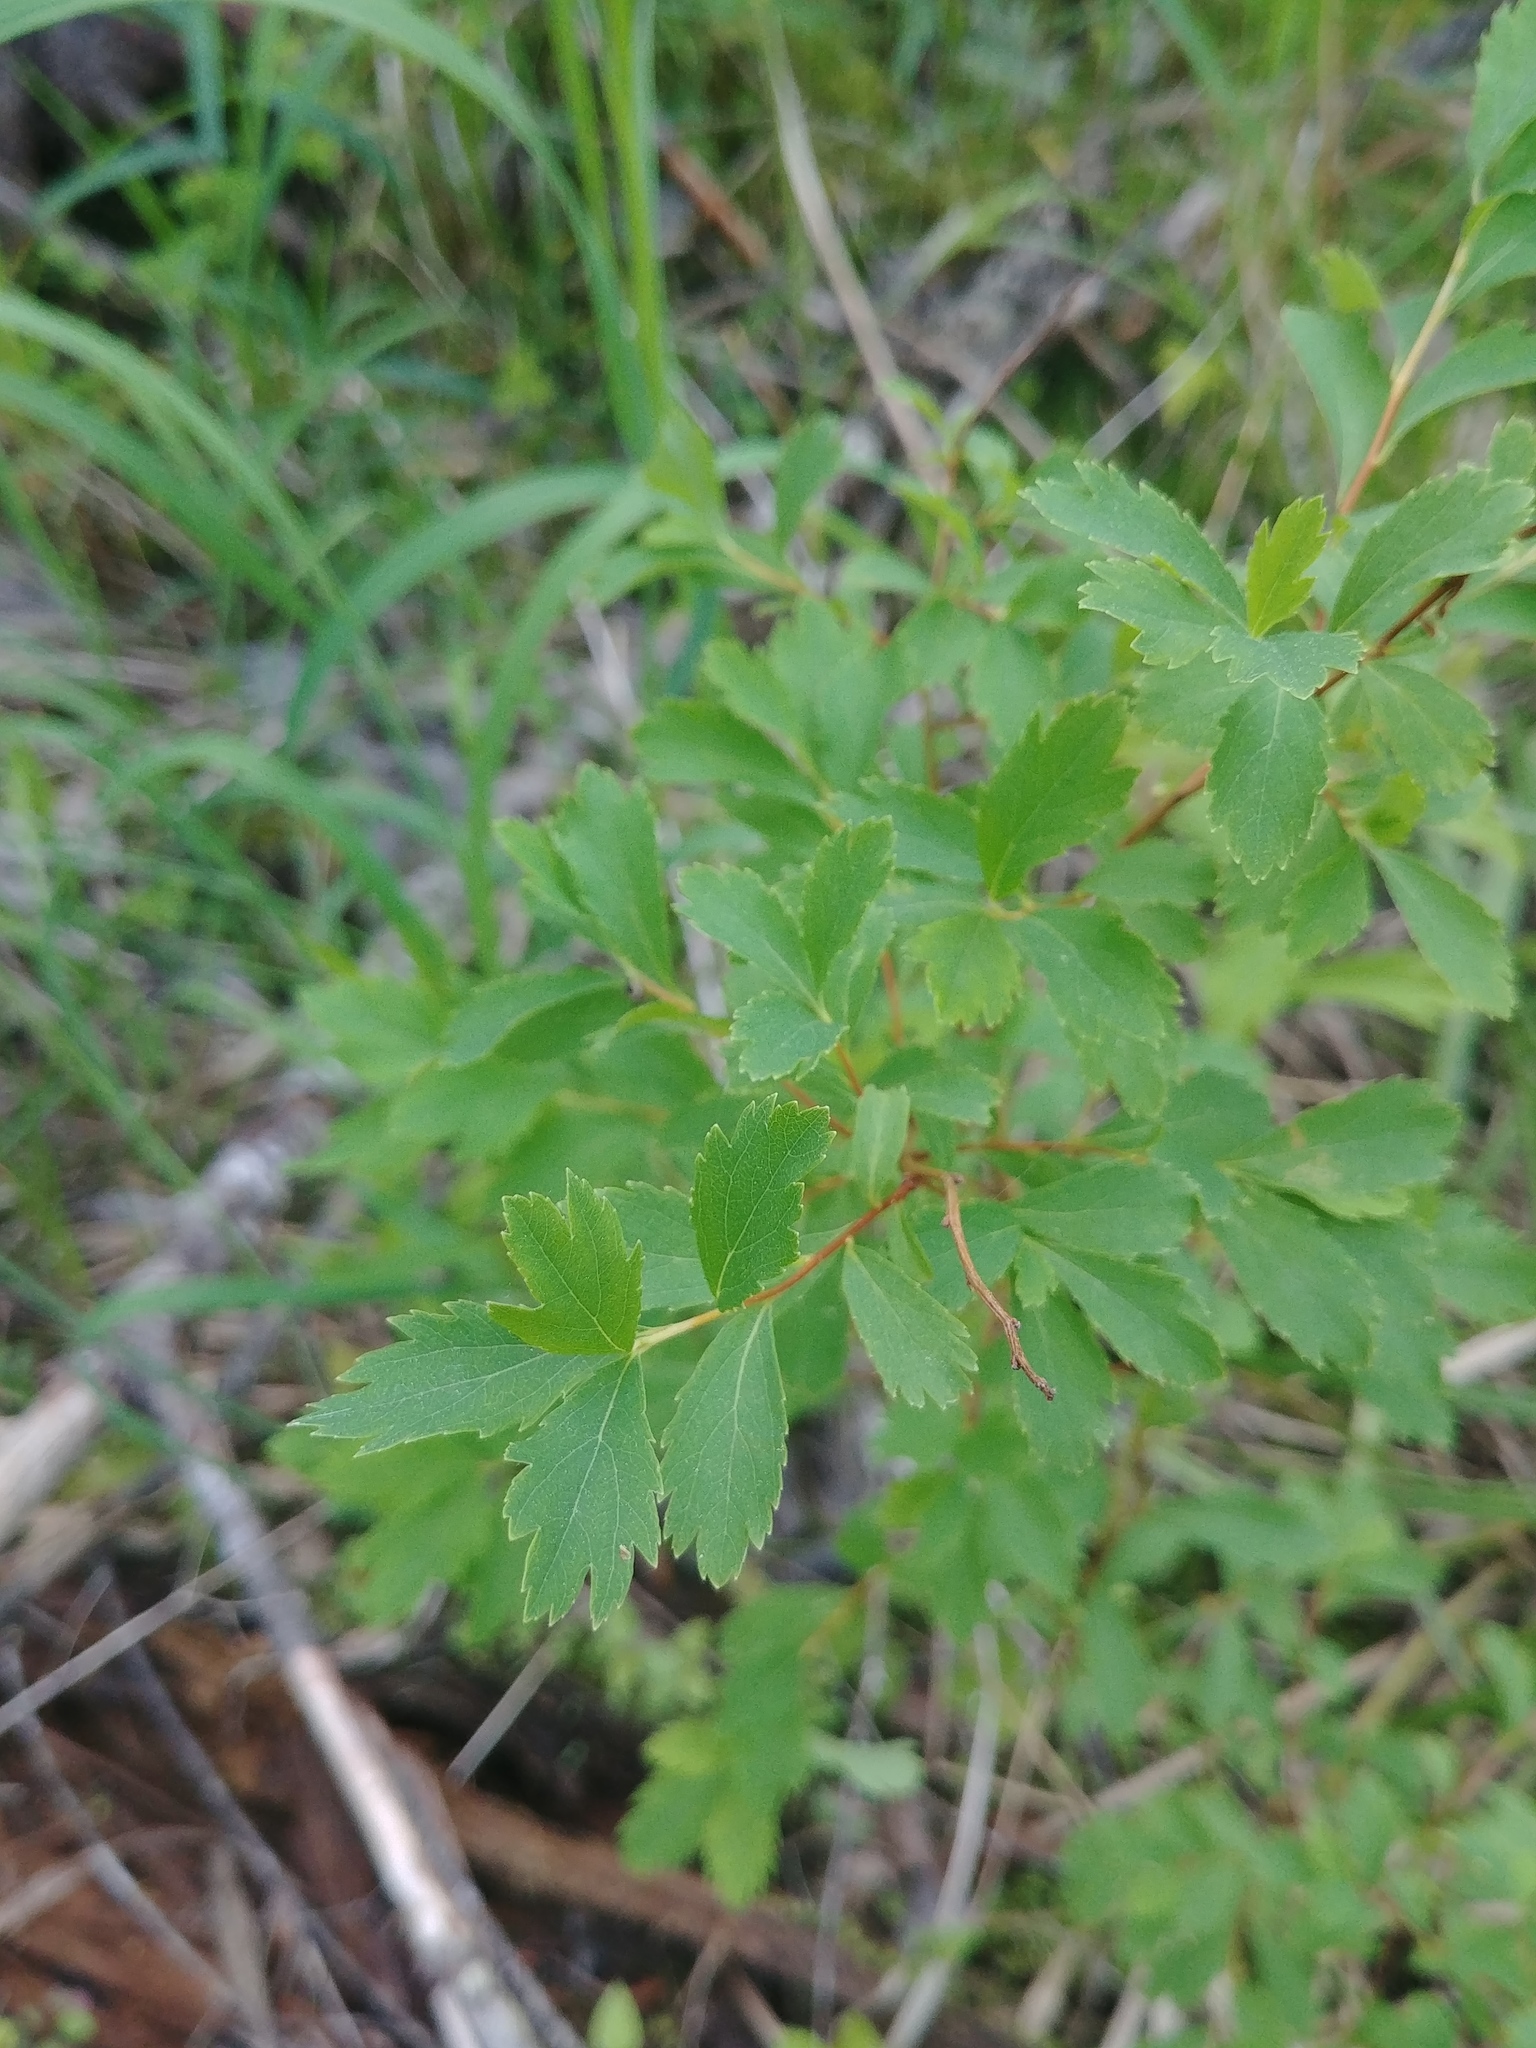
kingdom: Plantae
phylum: Tracheophyta
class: Magnoliopsida
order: Rosales
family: Rosaceae
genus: Spiraea
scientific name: Spiraea alba
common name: Pale bridewort
